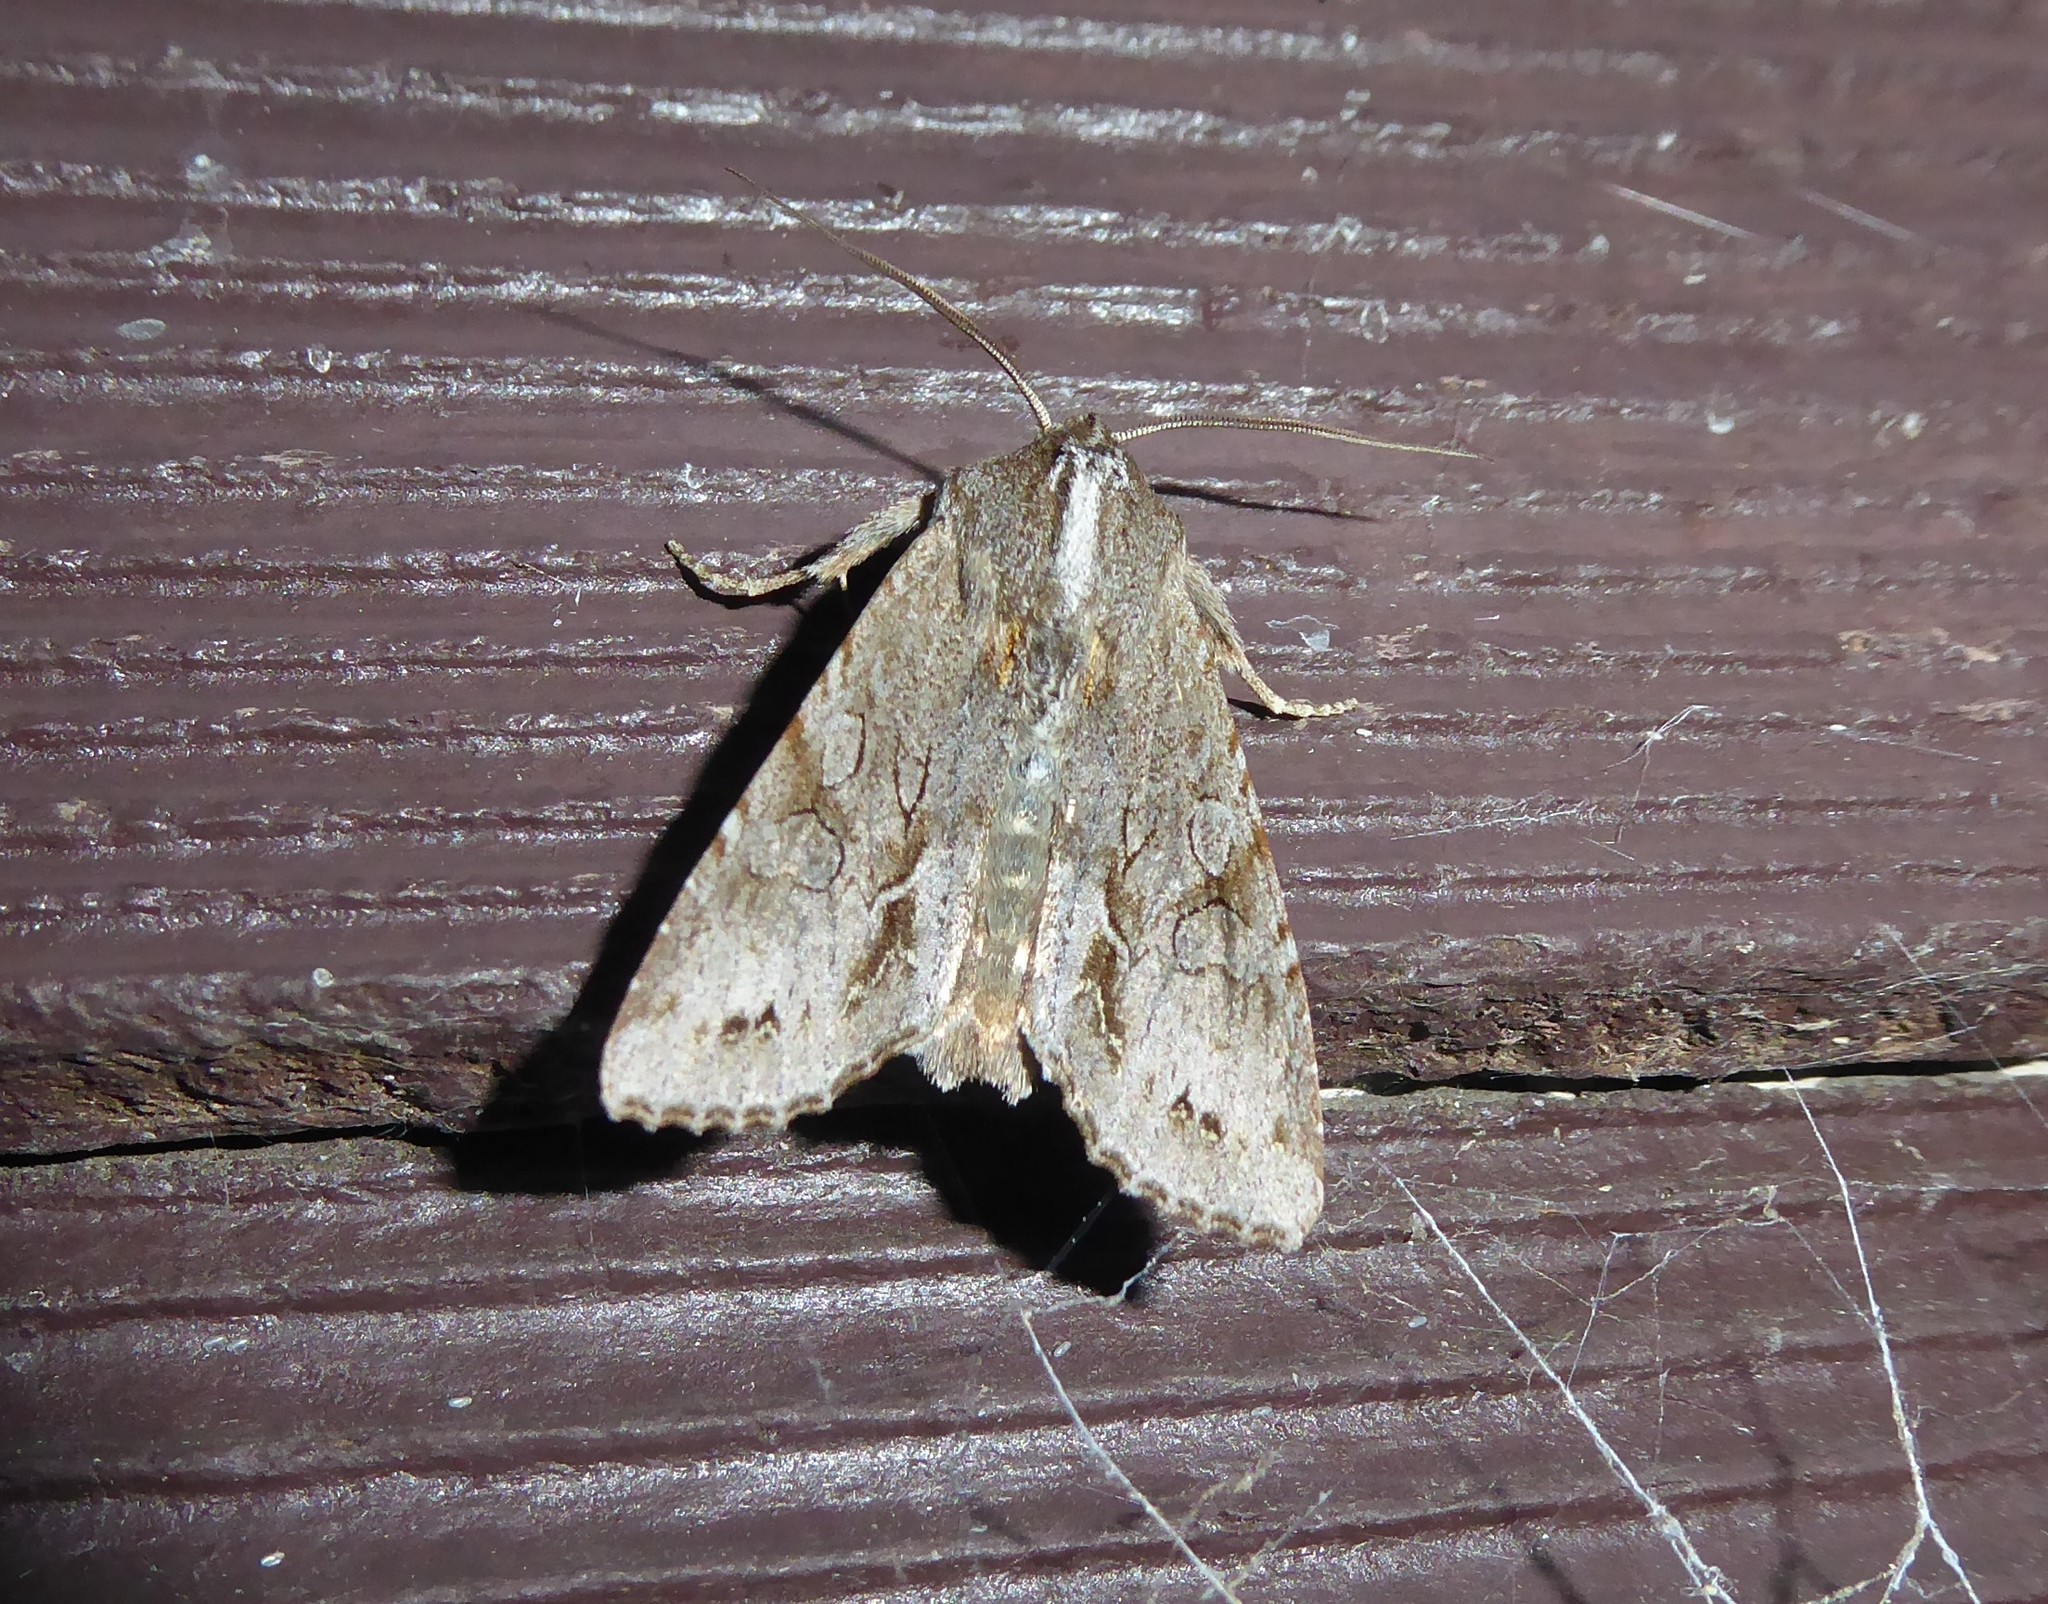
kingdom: Animalia
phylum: Arthropoda
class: Insecta
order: Lepidoptera
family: Noctuidae
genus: Ichneutica
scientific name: Ichneutica
